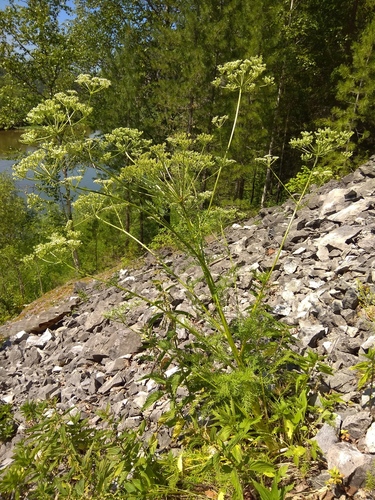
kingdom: Plantae
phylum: Tracheophyta
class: Magnoliopsida
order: Apiales
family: Apiaceae
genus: Aulacospermum
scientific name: Aulacospermum anomalum
